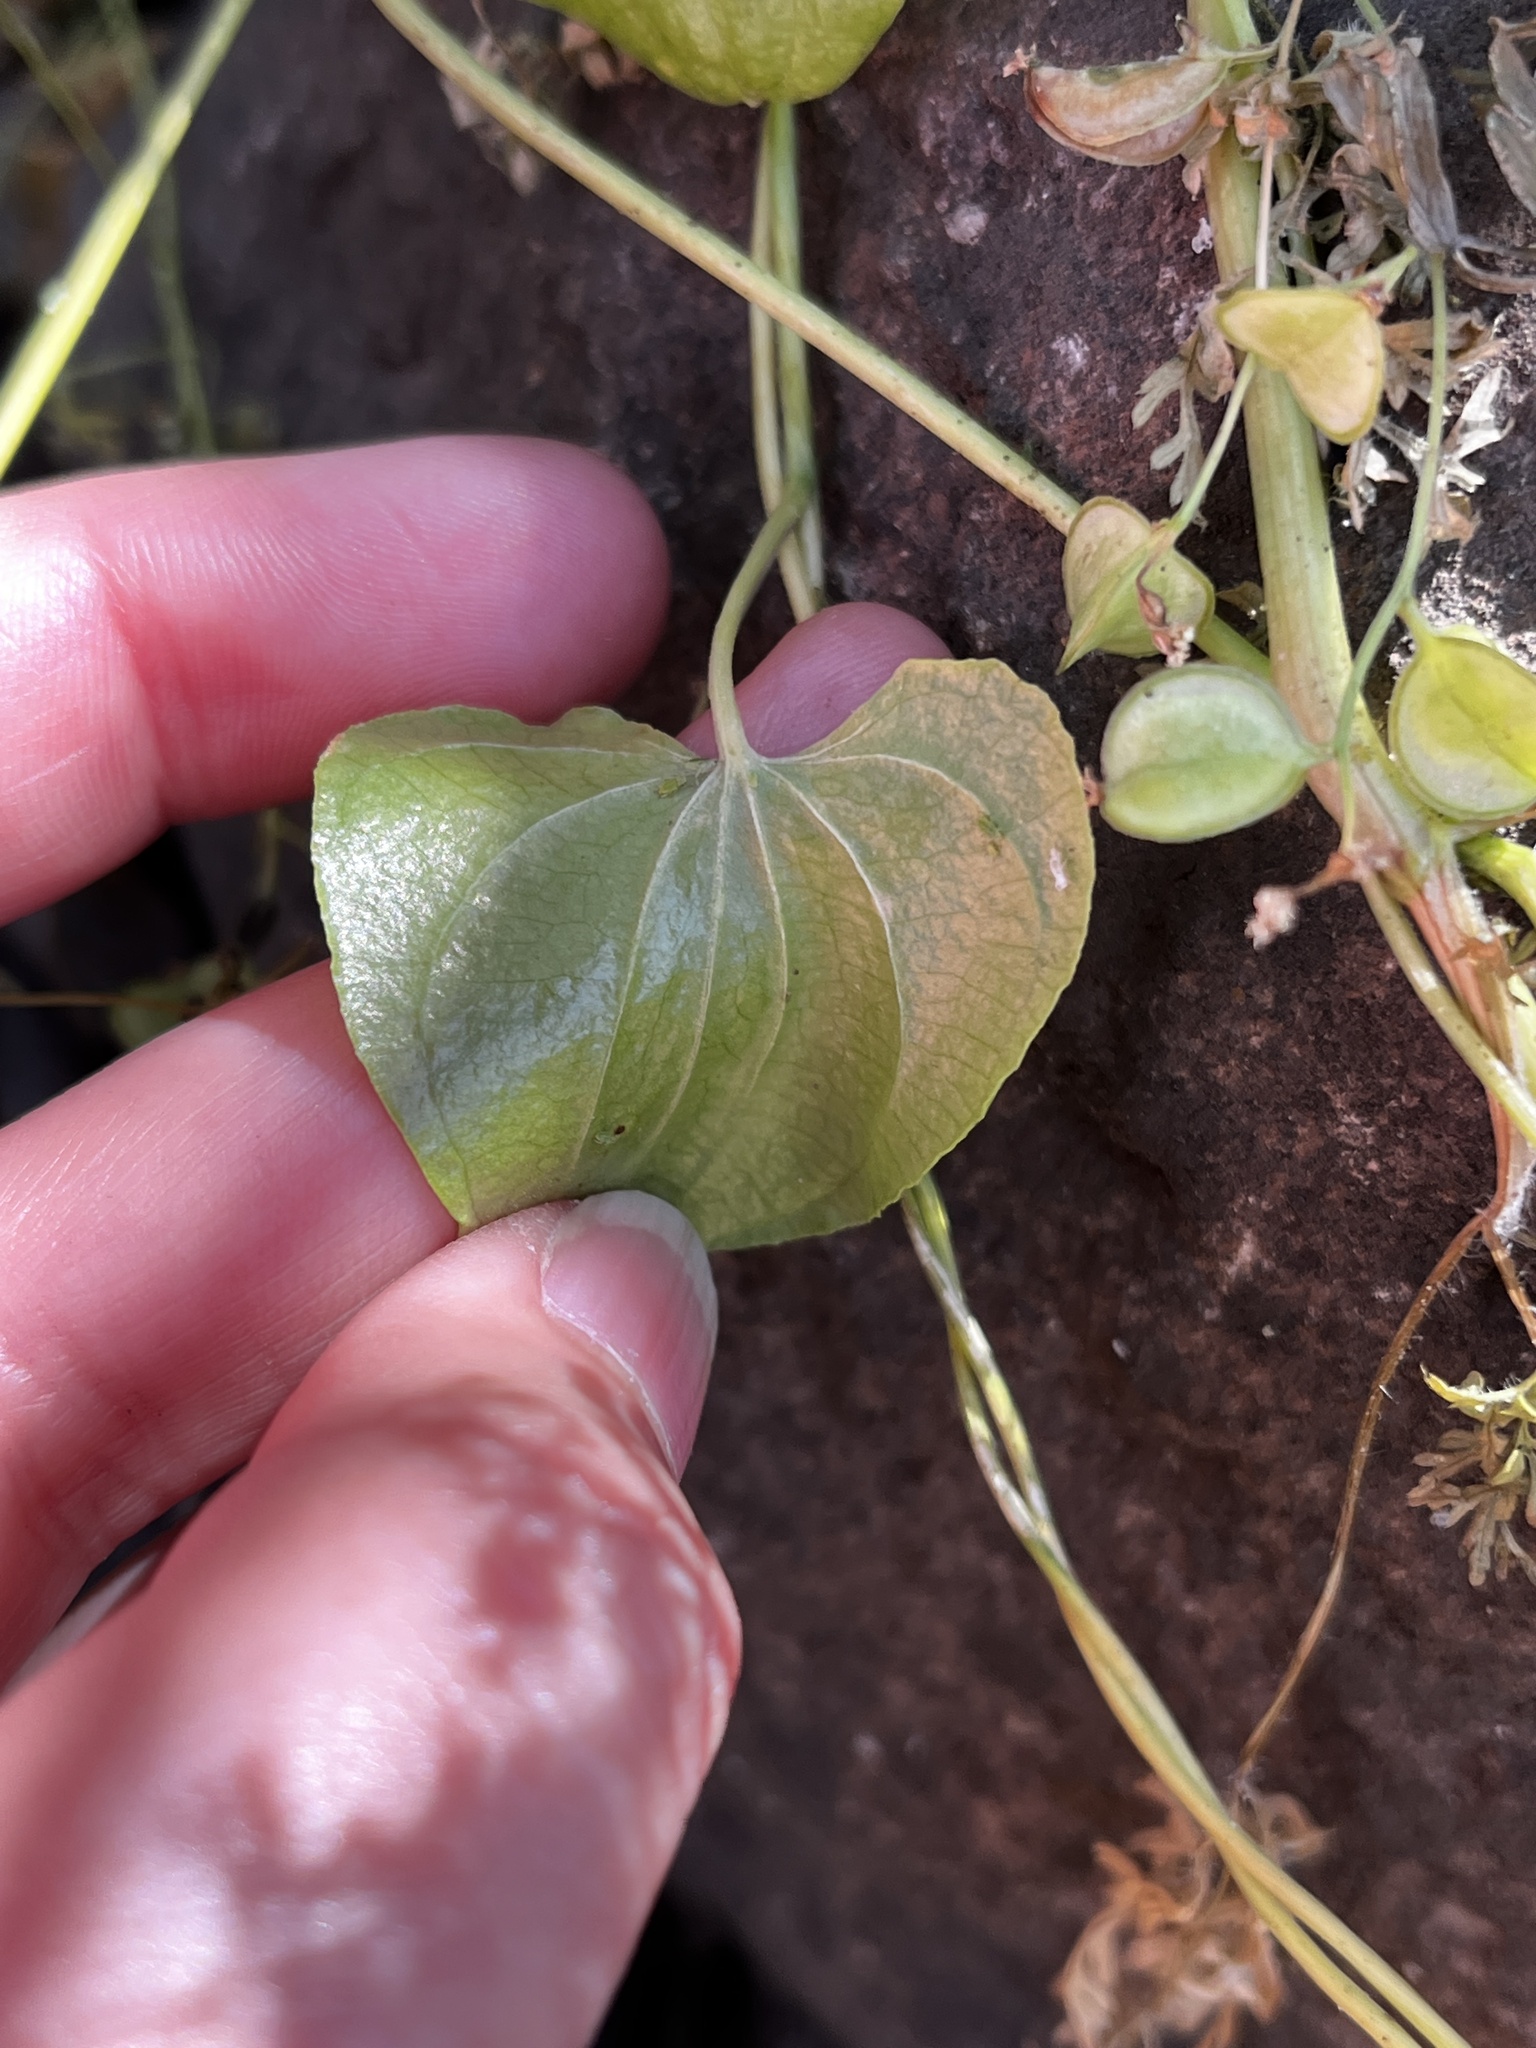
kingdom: Plantae
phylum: Tracheophyta
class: Liliopsida
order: Dioscoreales
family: Dioscoreaceae
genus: Dioscorea
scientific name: Dioscorea humifusa
